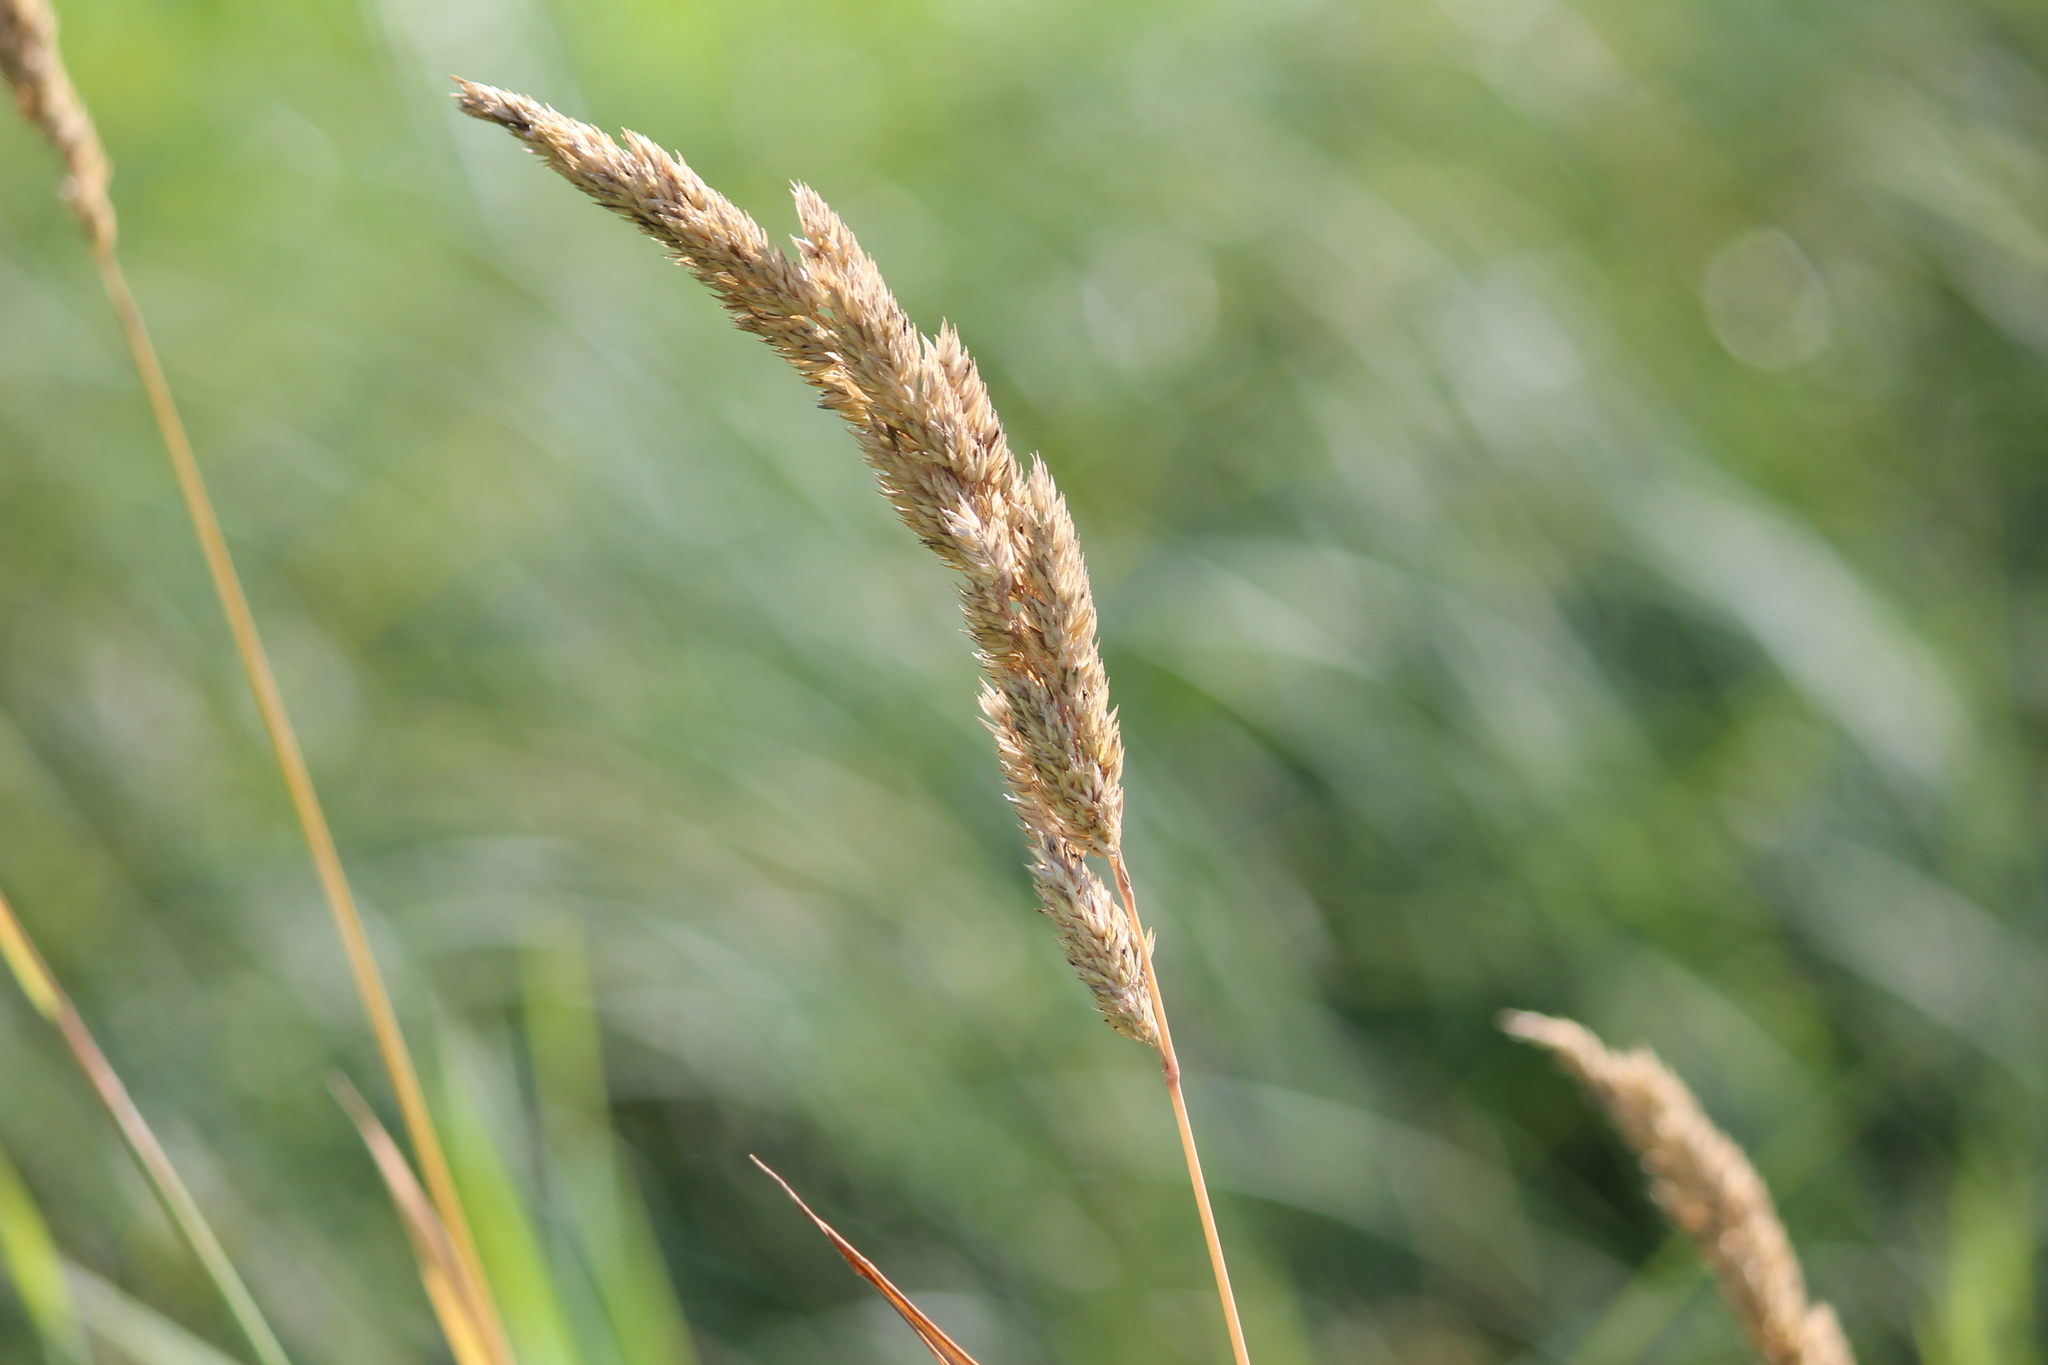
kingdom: Plantae
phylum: Tracheophyta
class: Liliopsida
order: Poales
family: Poaceae
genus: Phalaris
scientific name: Phalaris arundinacea
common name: Reed canary-grass
